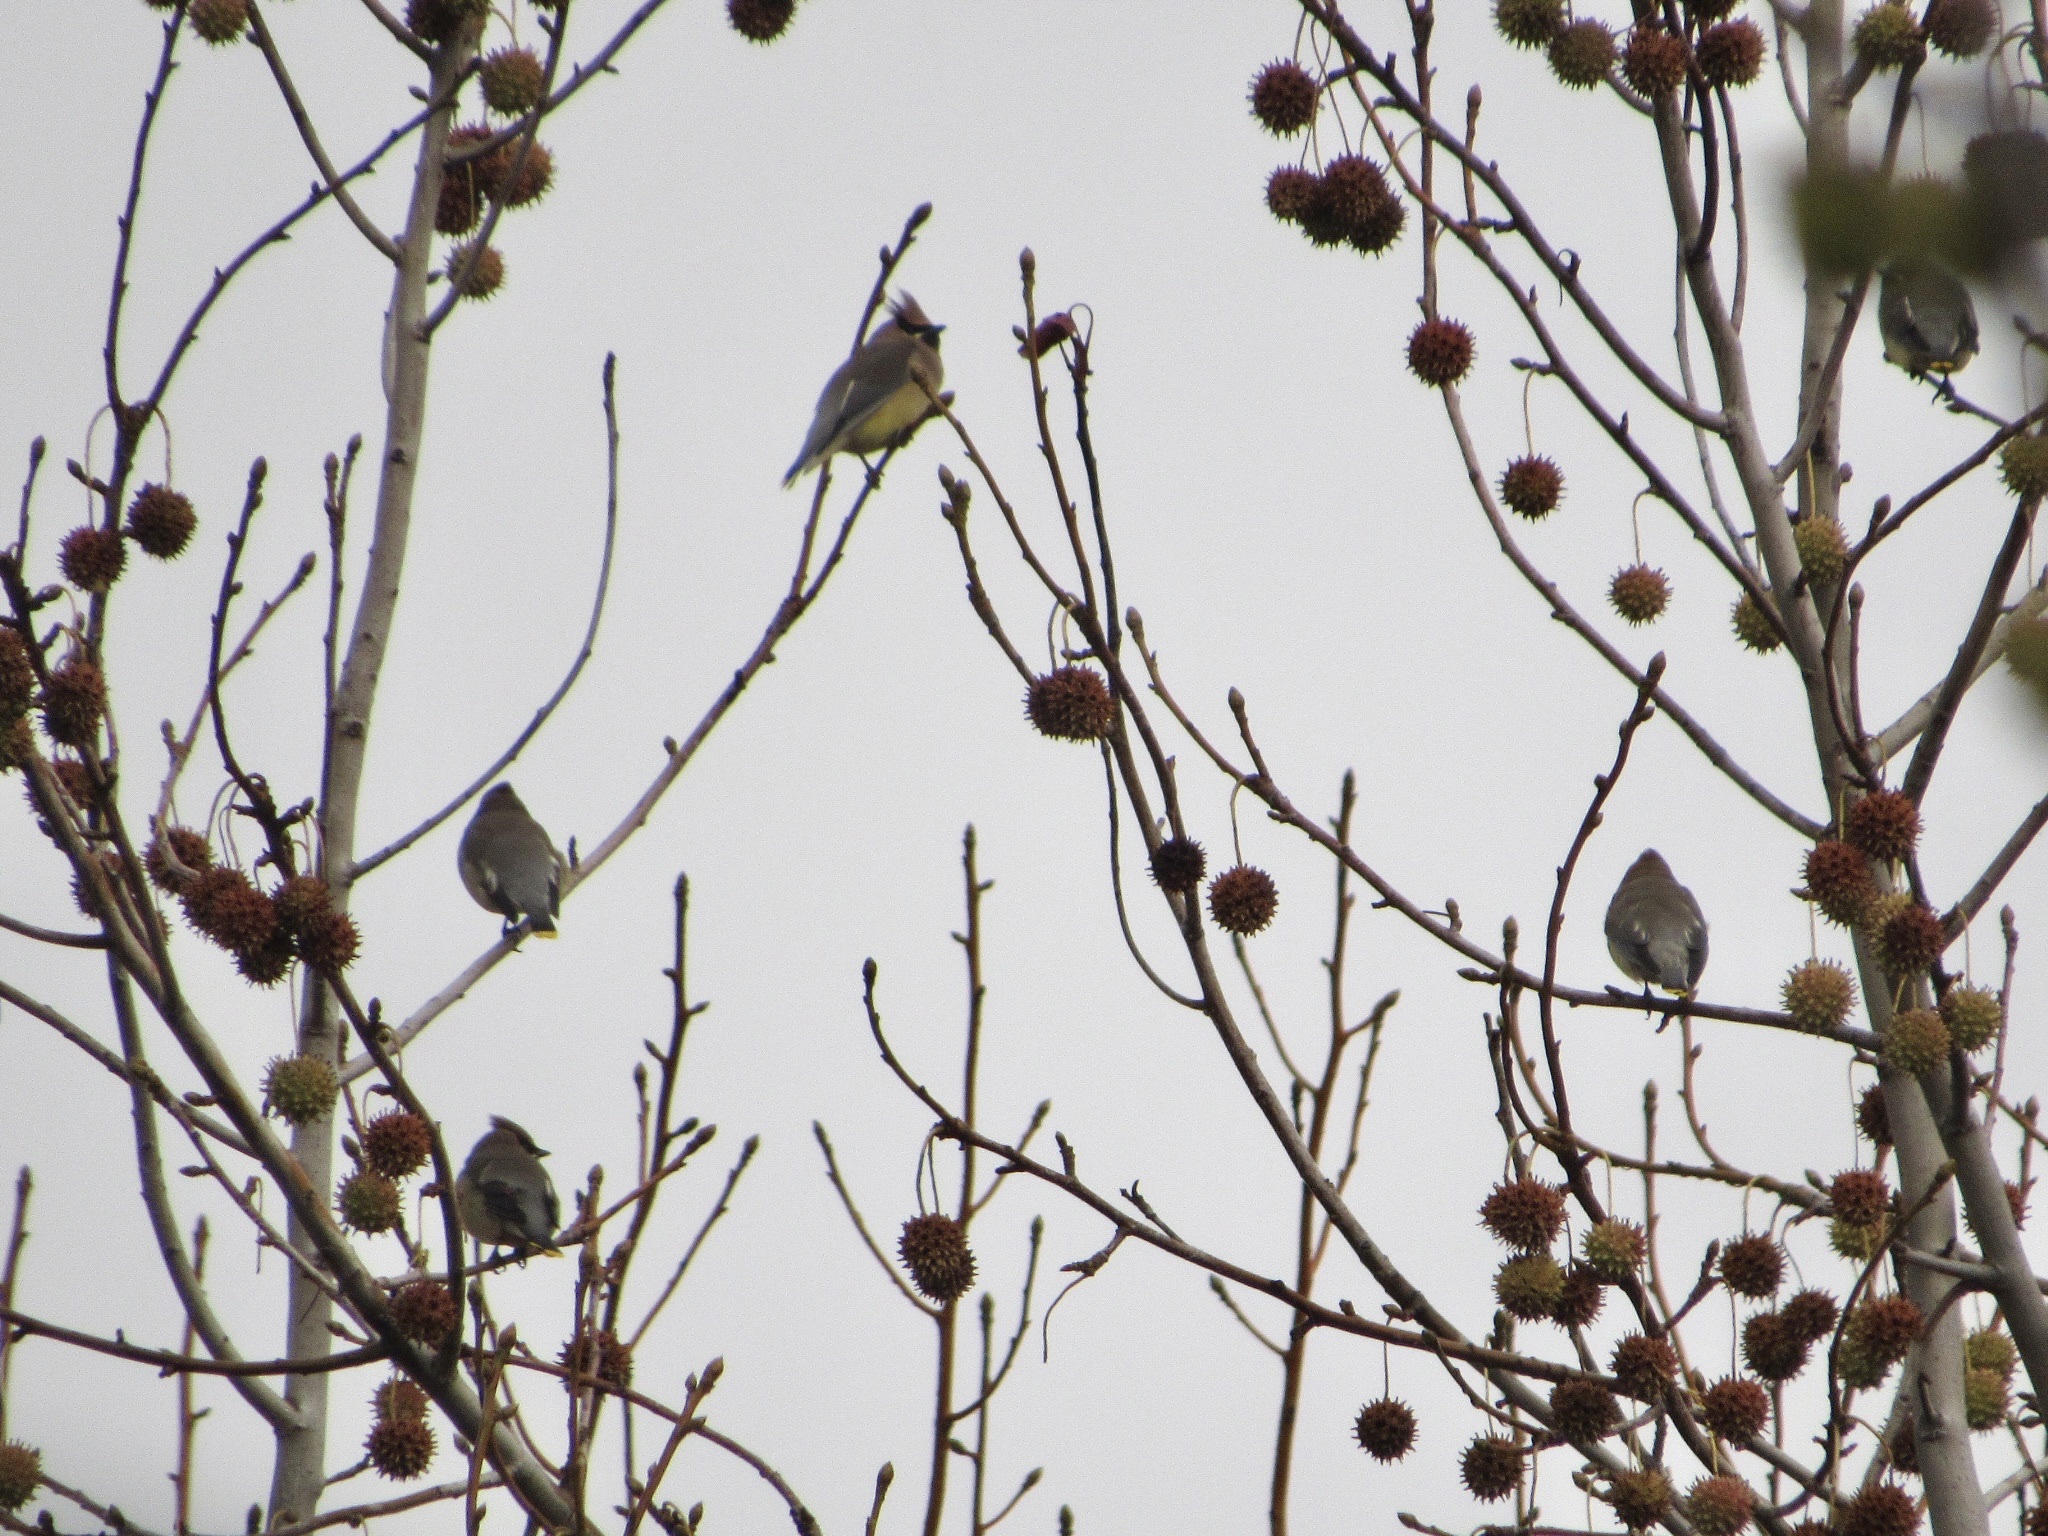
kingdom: Animalia
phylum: Chordata
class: Aves
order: Passeriformes
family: Bombycillidae
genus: Bombycilla
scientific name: Bombycilla cedrorum
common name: Cedar waxwing
